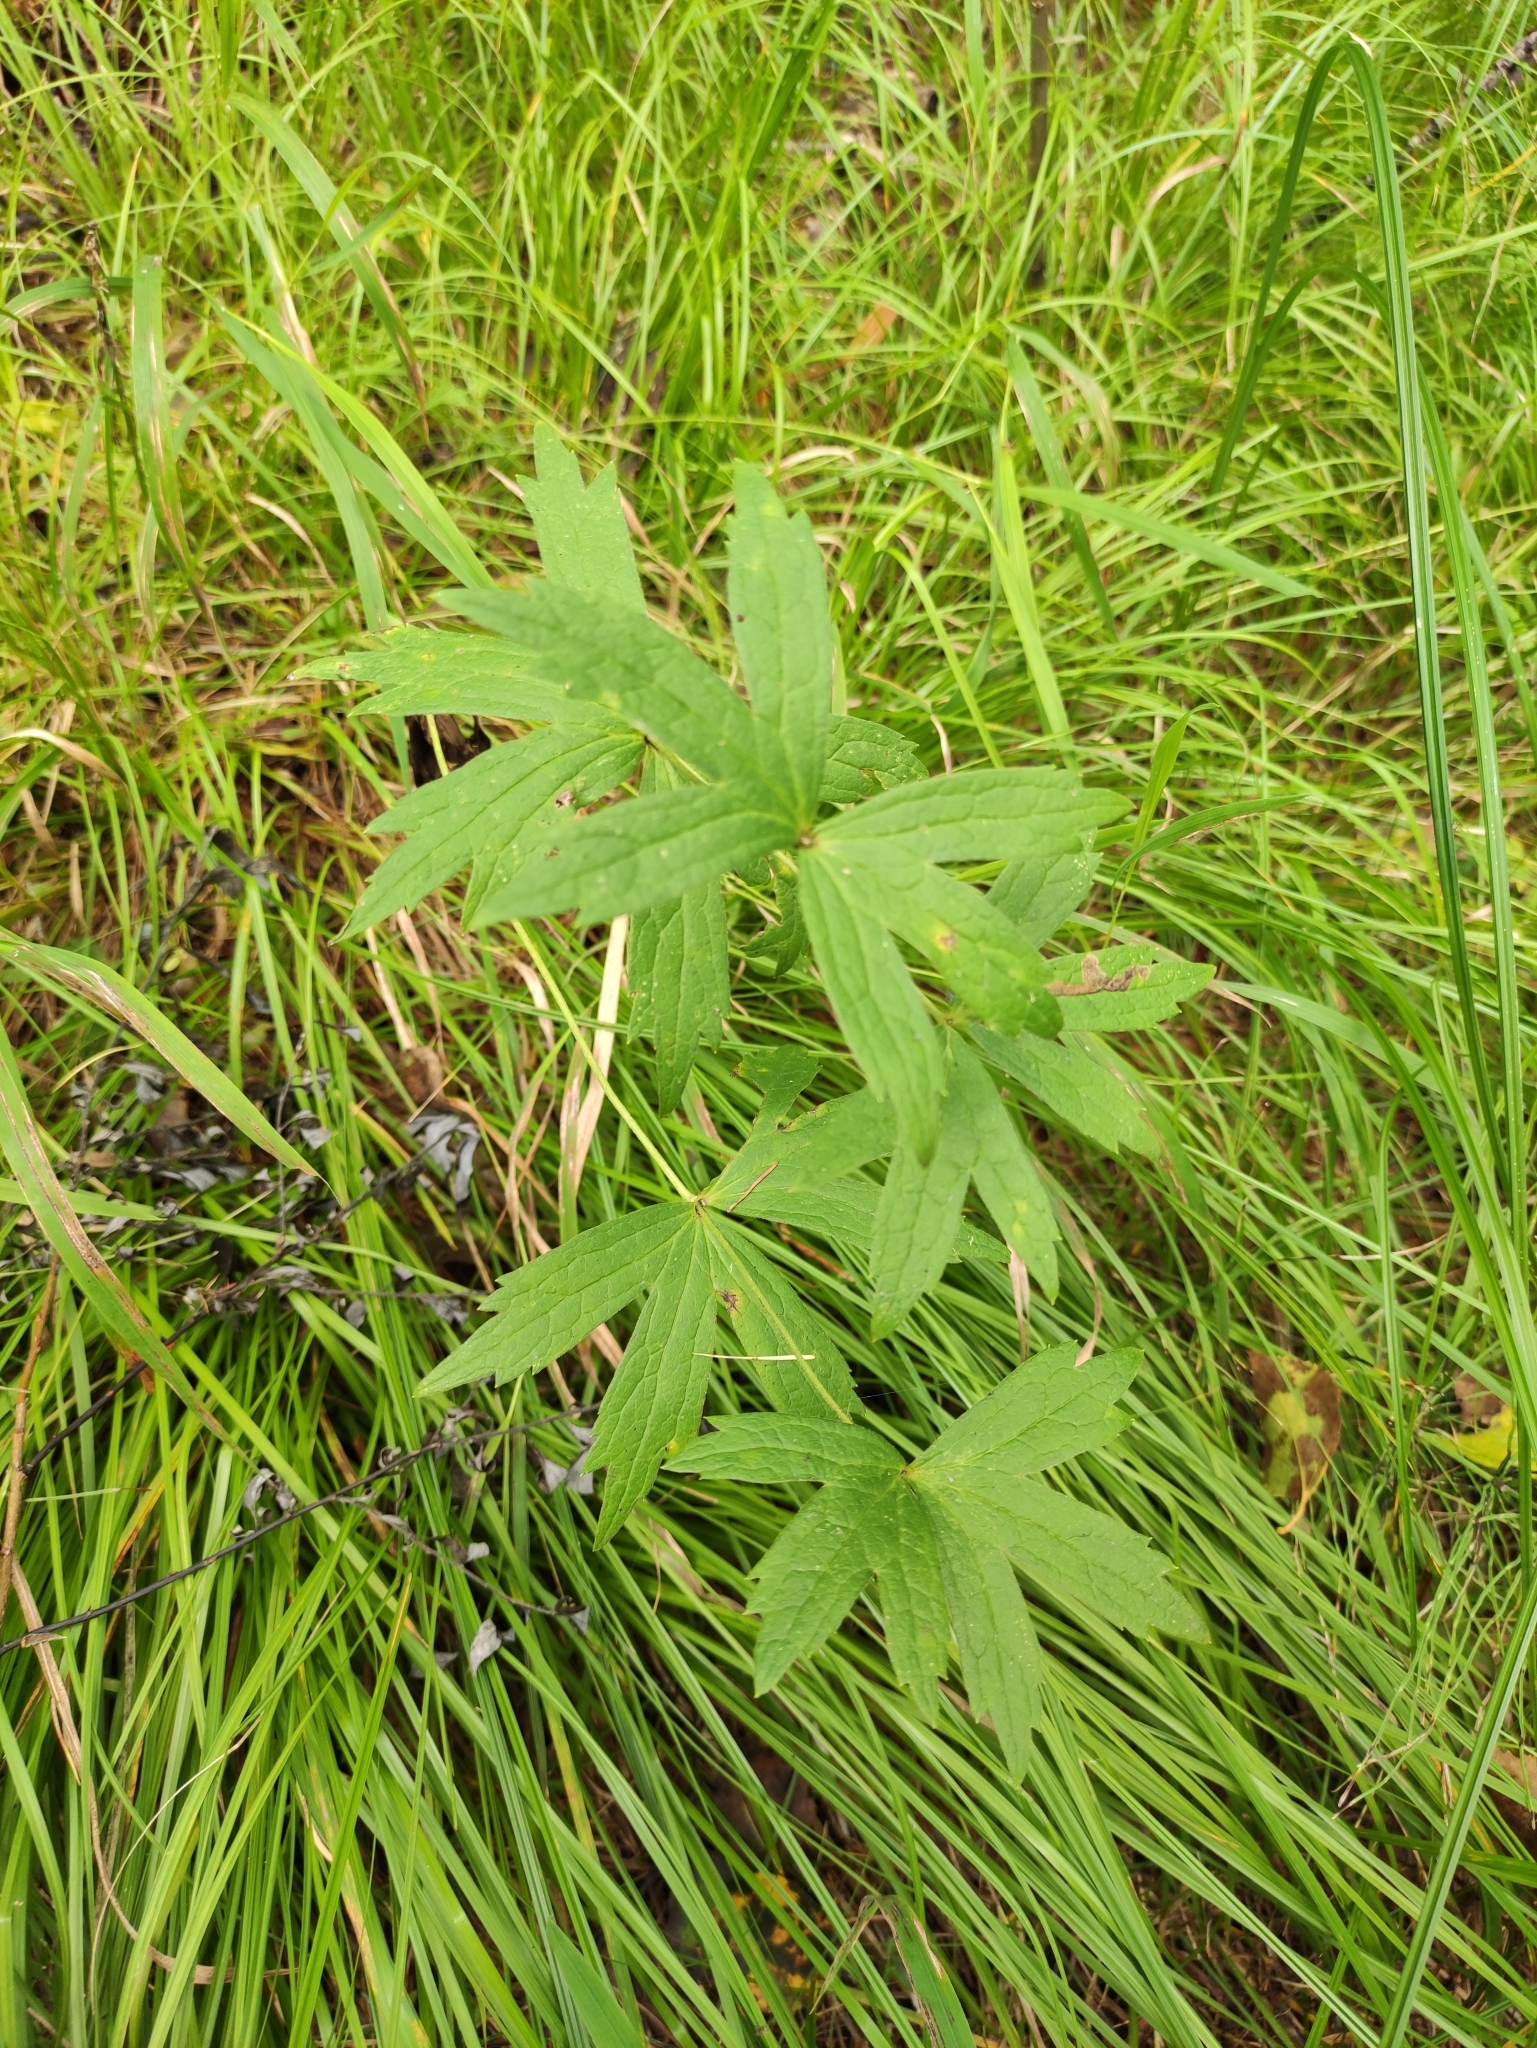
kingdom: Plantae
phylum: Tracheophyta
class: Magnoliopsida
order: Ranunculales
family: Ranunculaceae
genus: Anemonastrum
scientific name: Anemonastrum dichotomum
